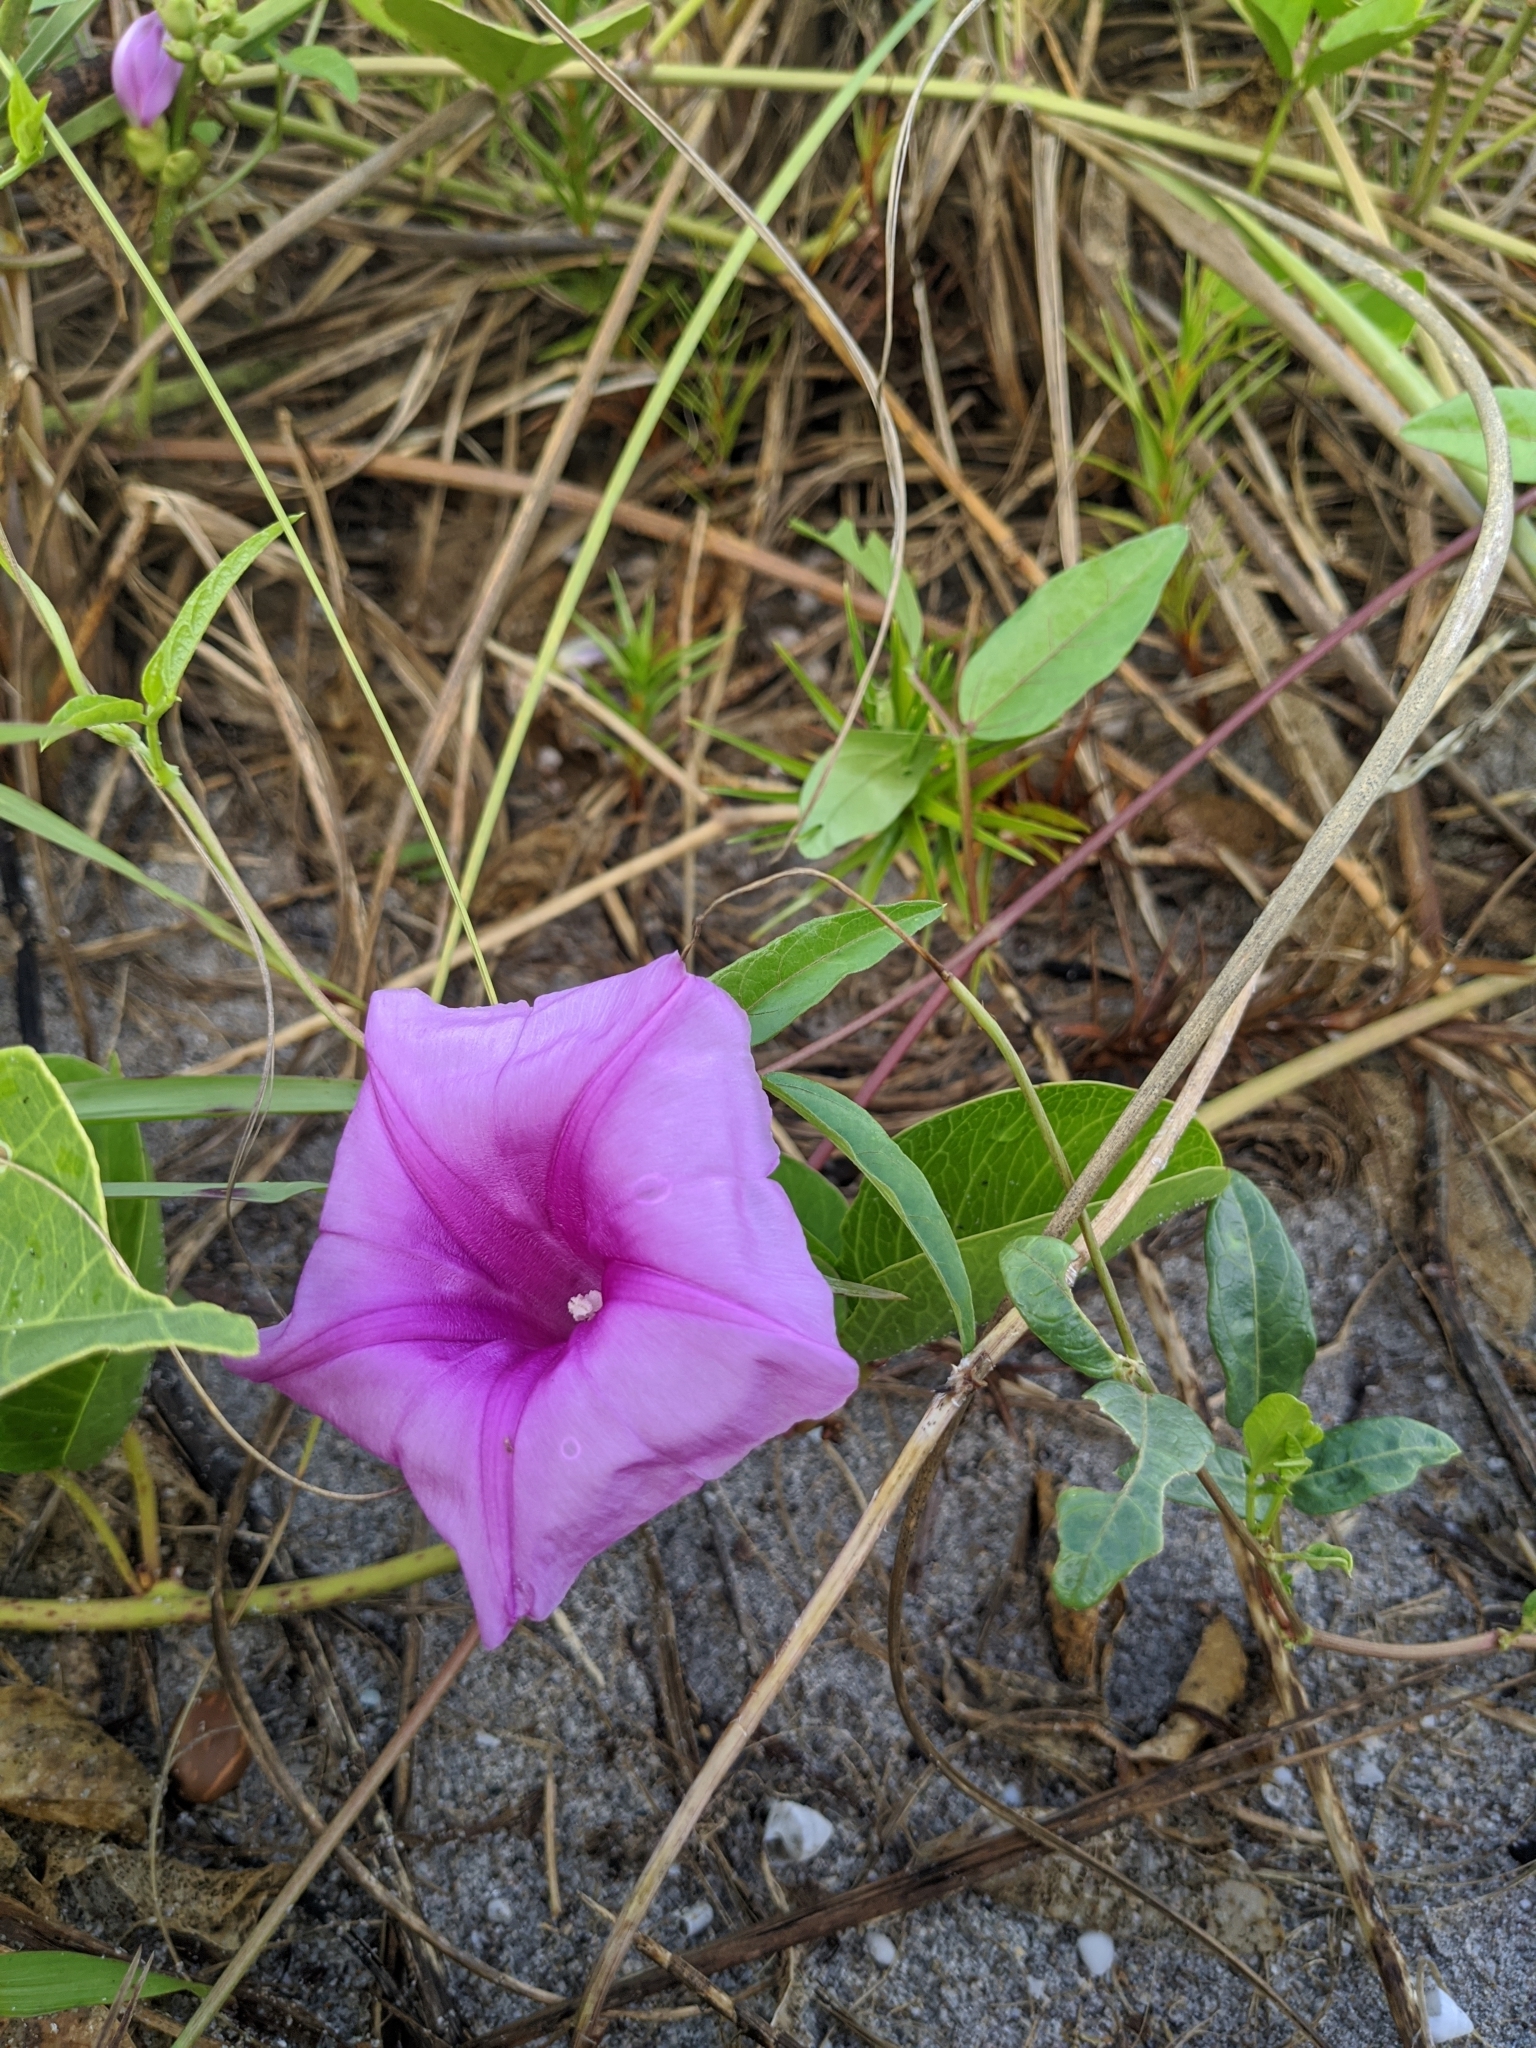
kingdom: Plantae
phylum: Tracheophyta
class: Magnoliopsida
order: Solanales
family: Convolvulaceae
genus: Ipomoea
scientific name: Ipomoea pes-caprae
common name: Beach morning glory
